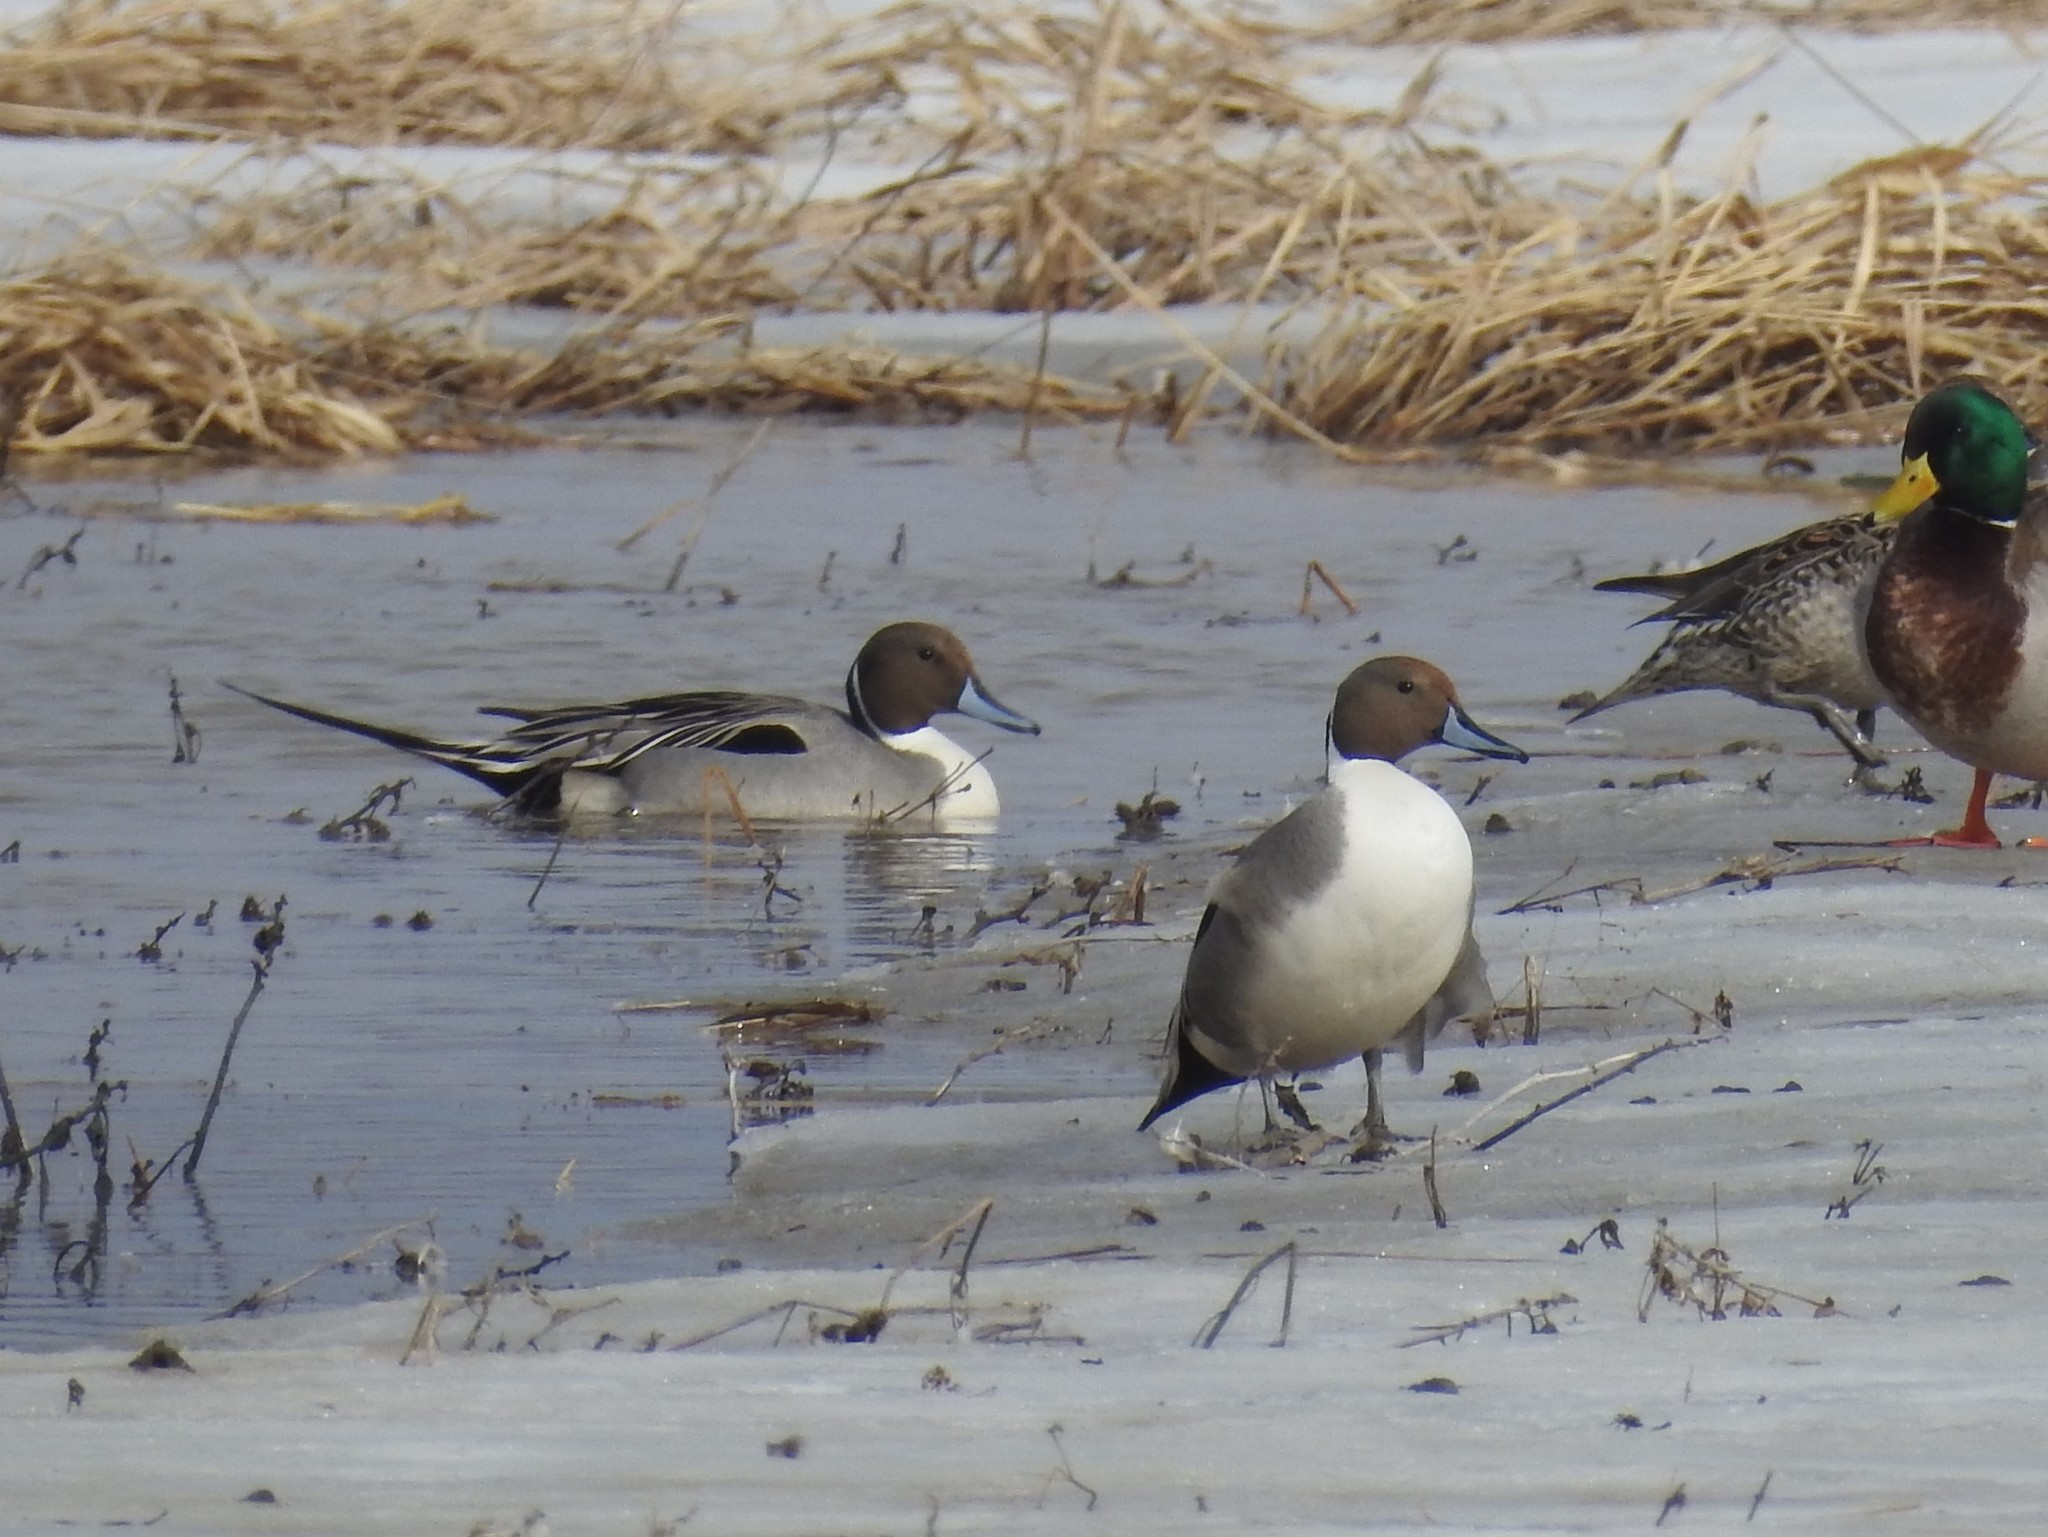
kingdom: Animalia
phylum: Chordata
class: Aves
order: Anseriformes
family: Anatidae
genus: Anas
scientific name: Anas acuta
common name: Northern pintail
